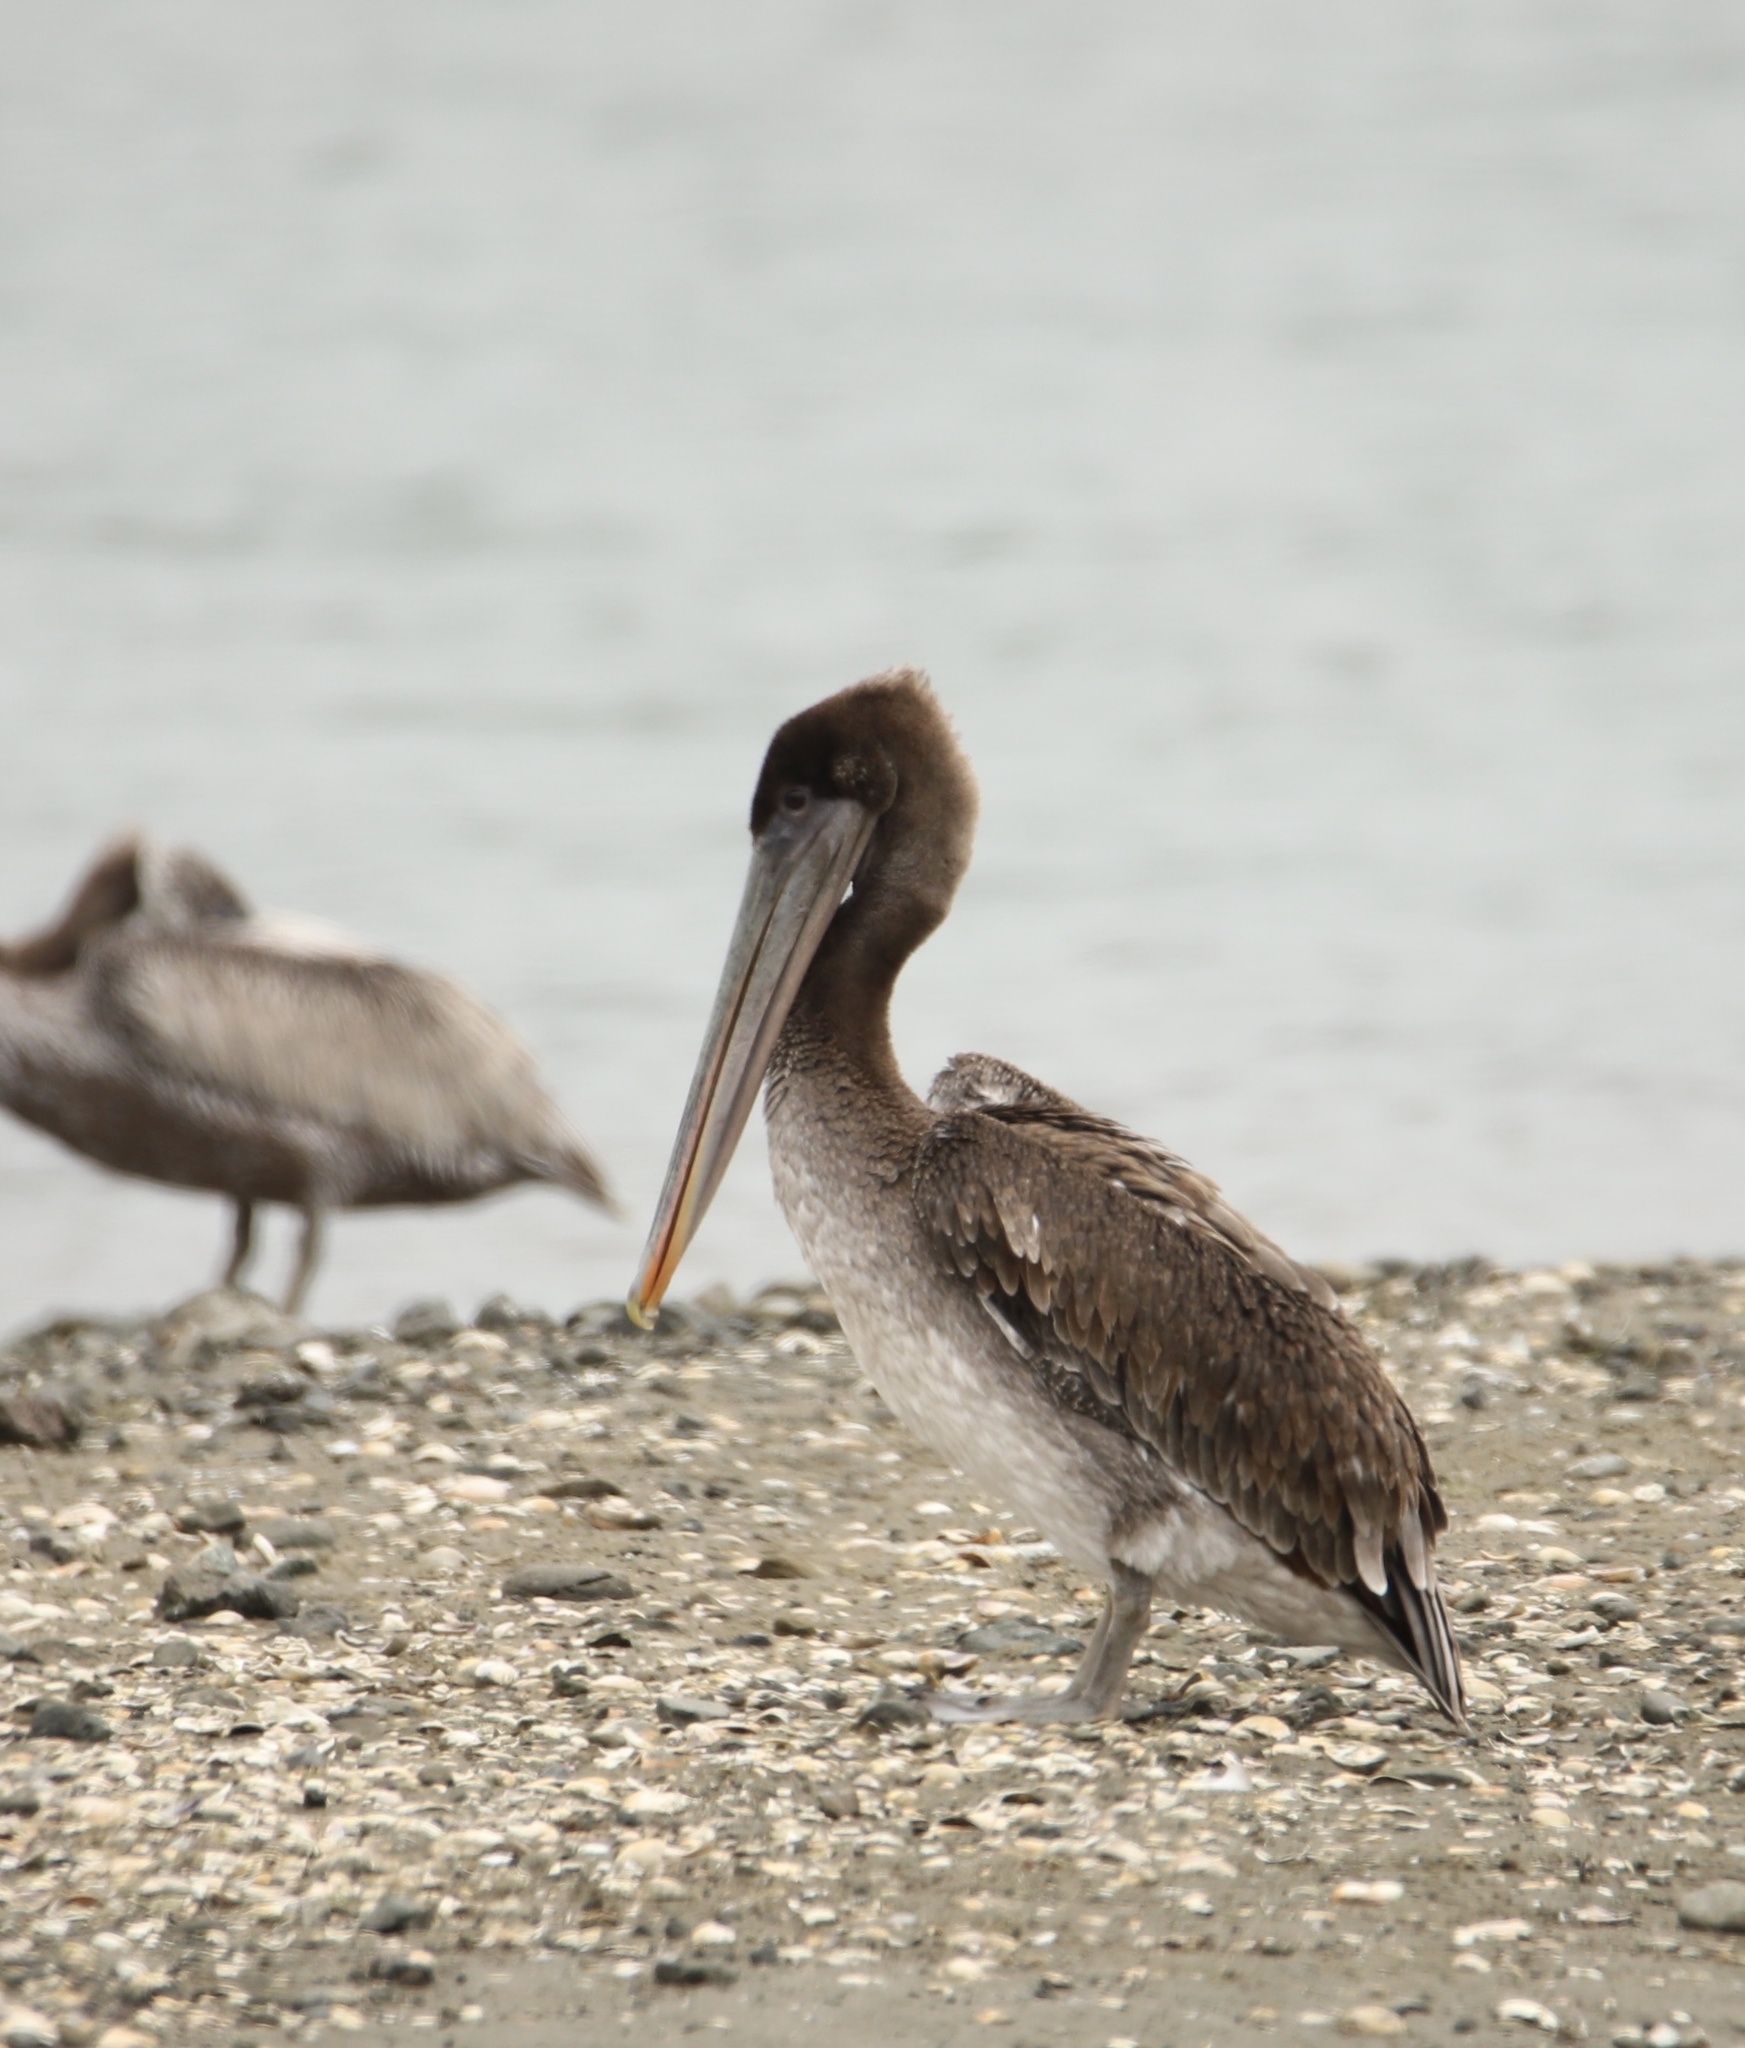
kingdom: Animalia
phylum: Chordata
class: Aves
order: Pelecaniformes
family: Pelecanidae
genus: Pelecanus
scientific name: Pelecanus occidentalis
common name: Brown pelican
